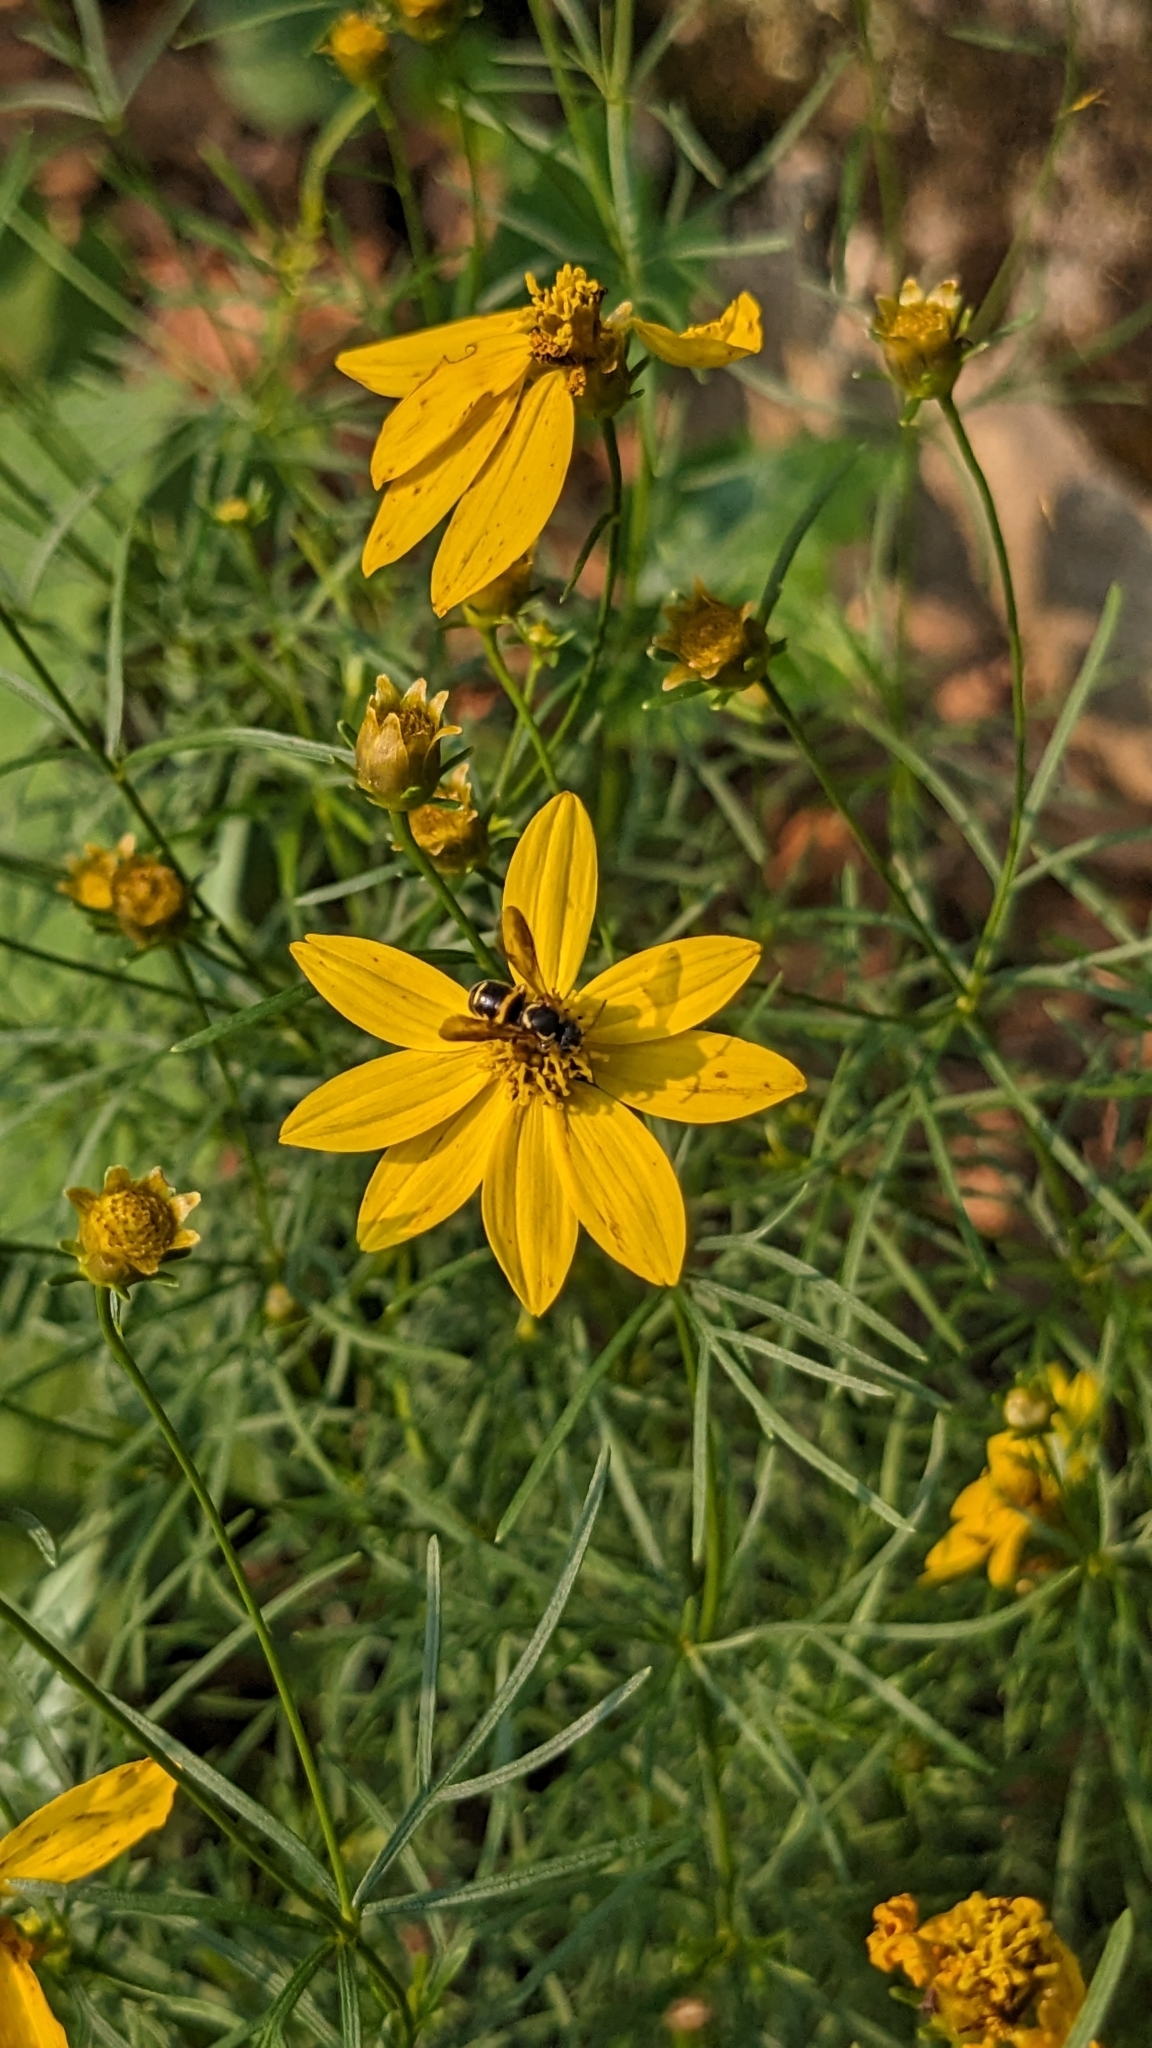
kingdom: Animalia
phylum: Arthropoda
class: Insecta
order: Hymenoptera
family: Megachilidae
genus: Stelis
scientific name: Stelis louisae
